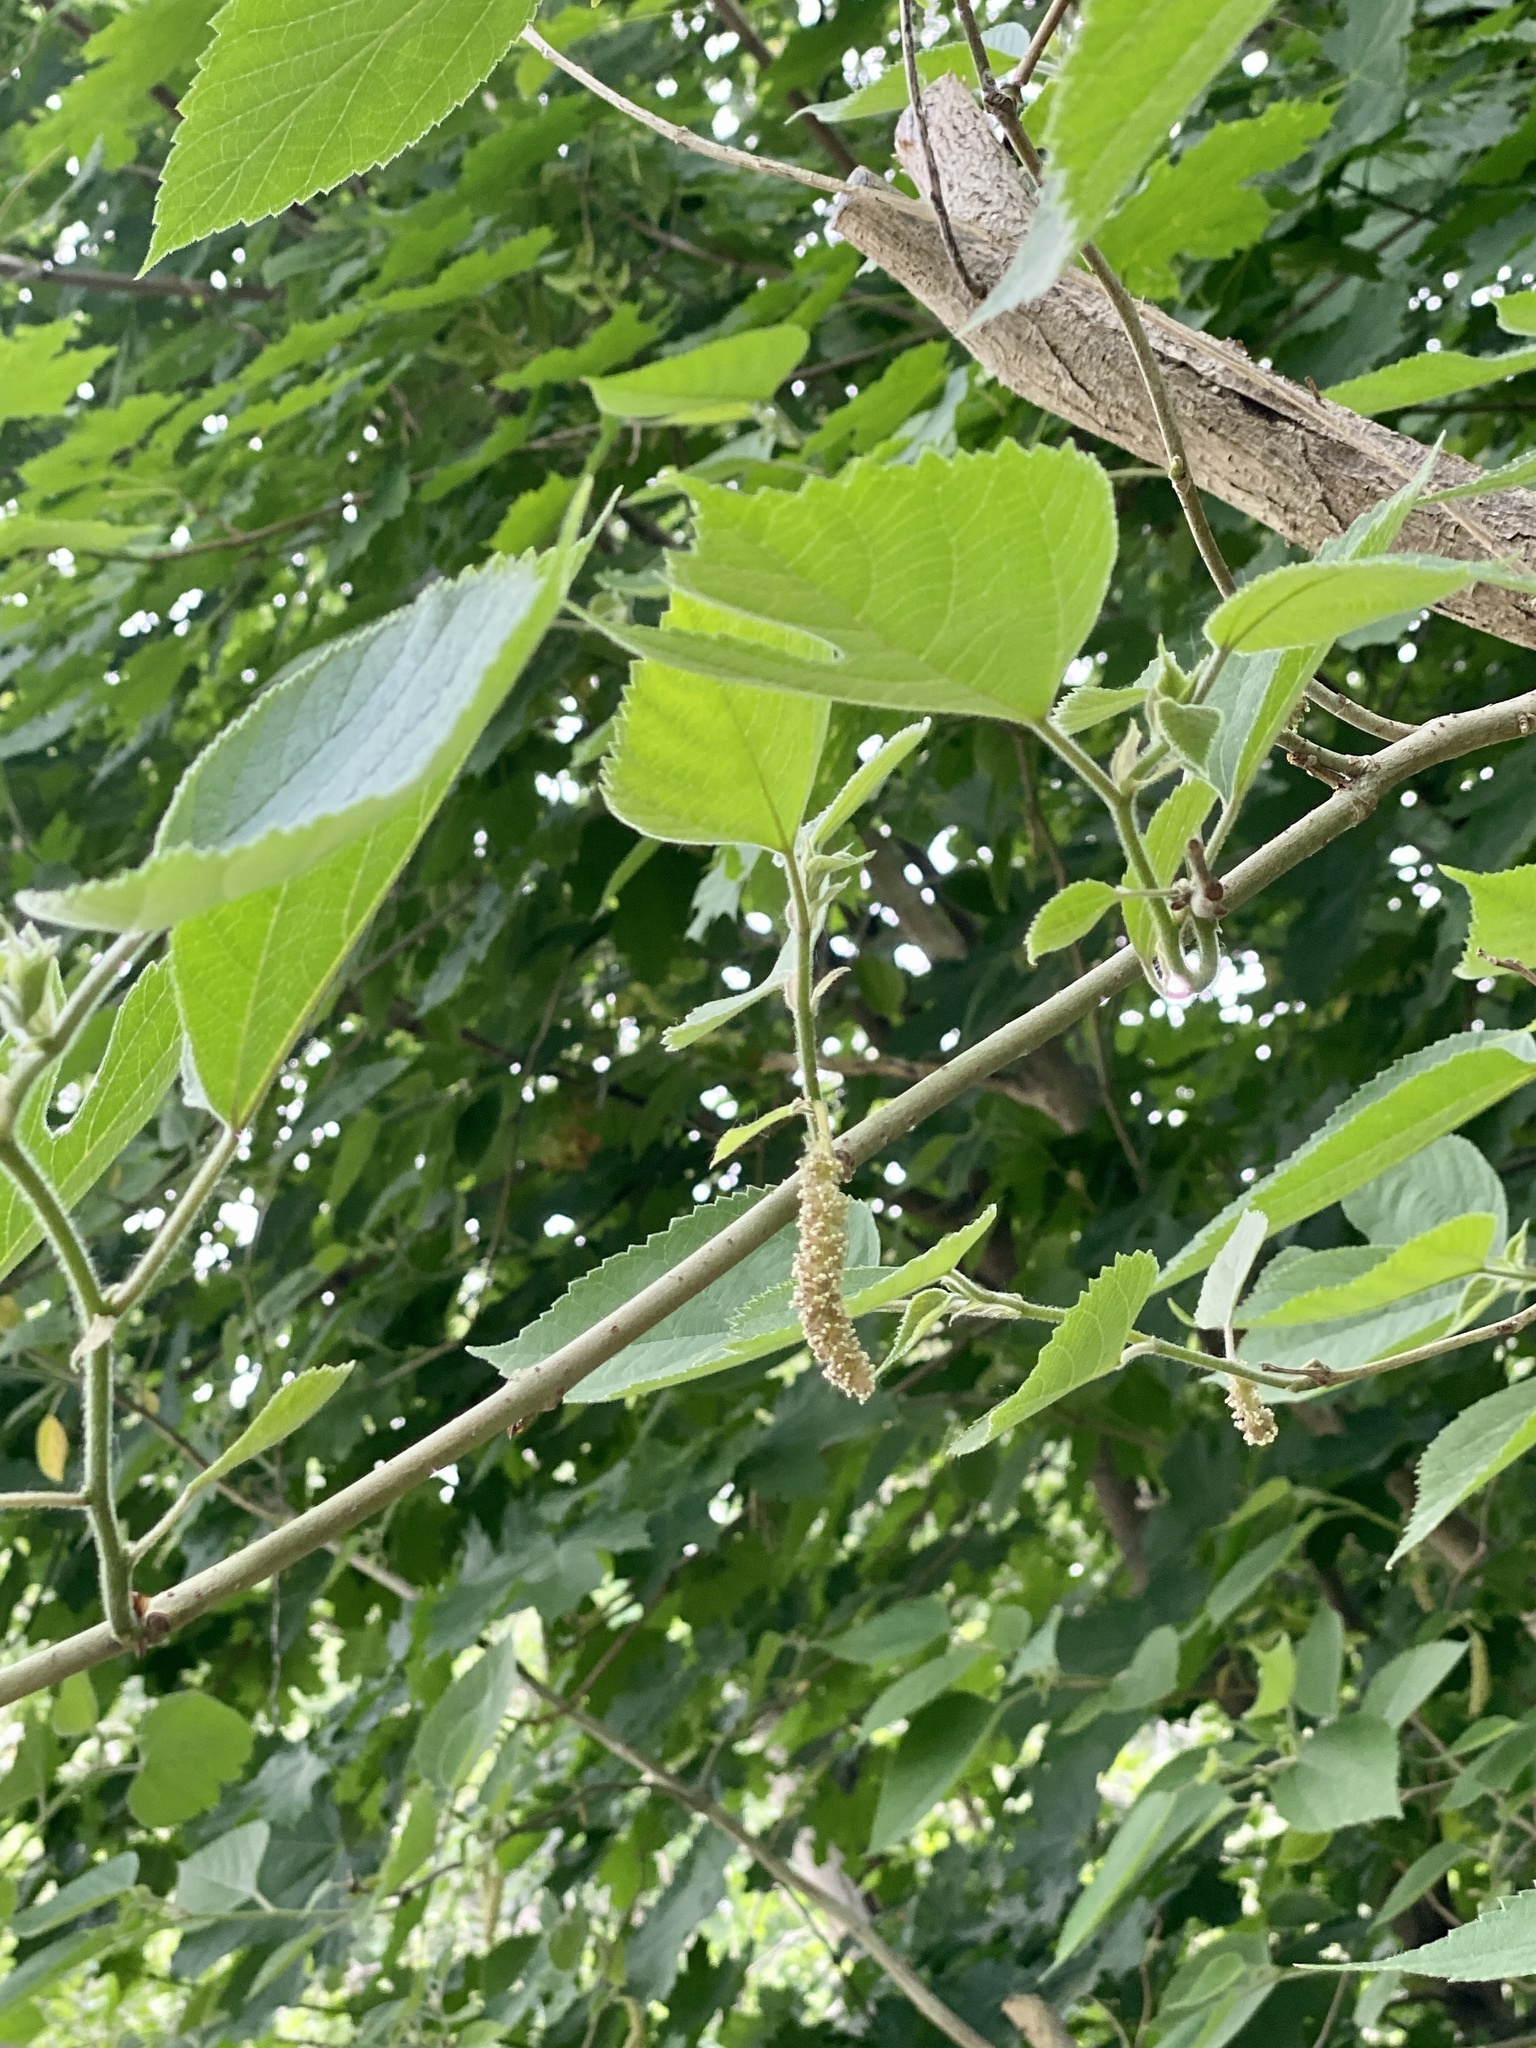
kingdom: Plantae
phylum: Tracheophyta
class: Magnoliopsida
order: Rosales
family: Moraceae
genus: Broussonetia
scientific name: Broussonetia papyrifera
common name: Paper mulberry
